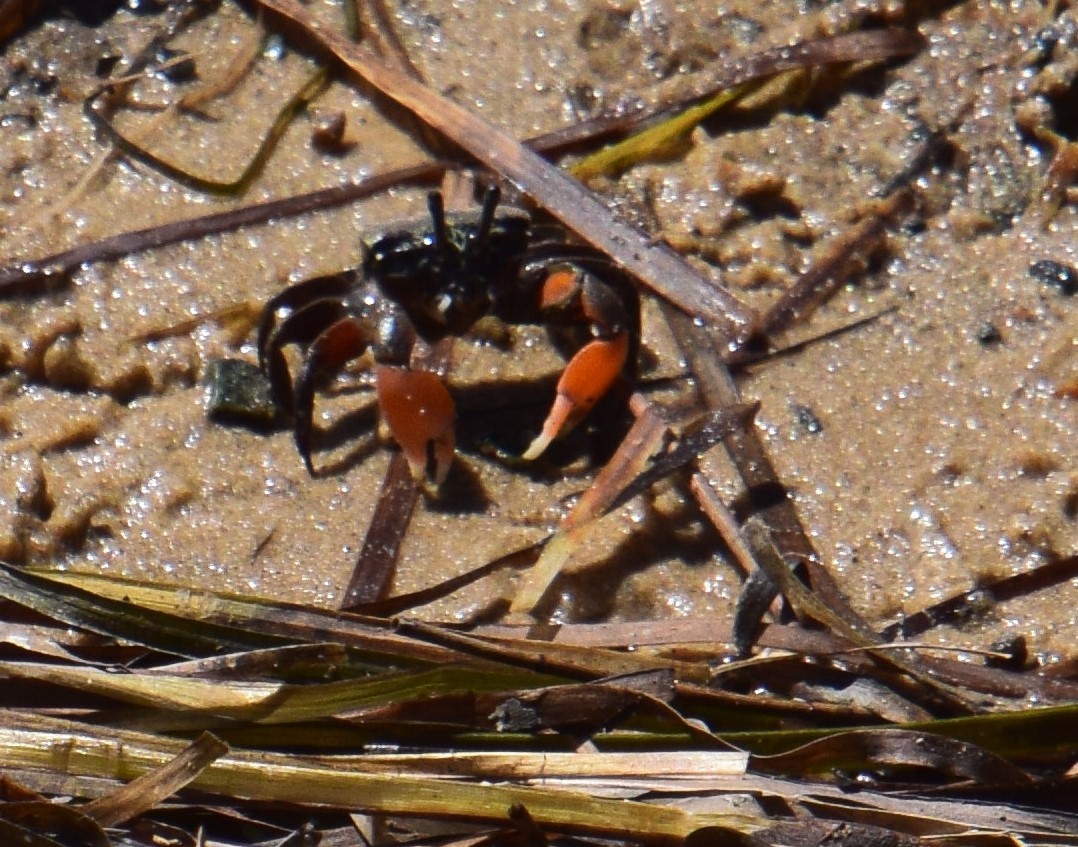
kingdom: Animalia
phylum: Arthropoda
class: Malacostraca
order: Decapoda
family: Heloeciidae
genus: Heloecius
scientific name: Heloecius cordiformis
